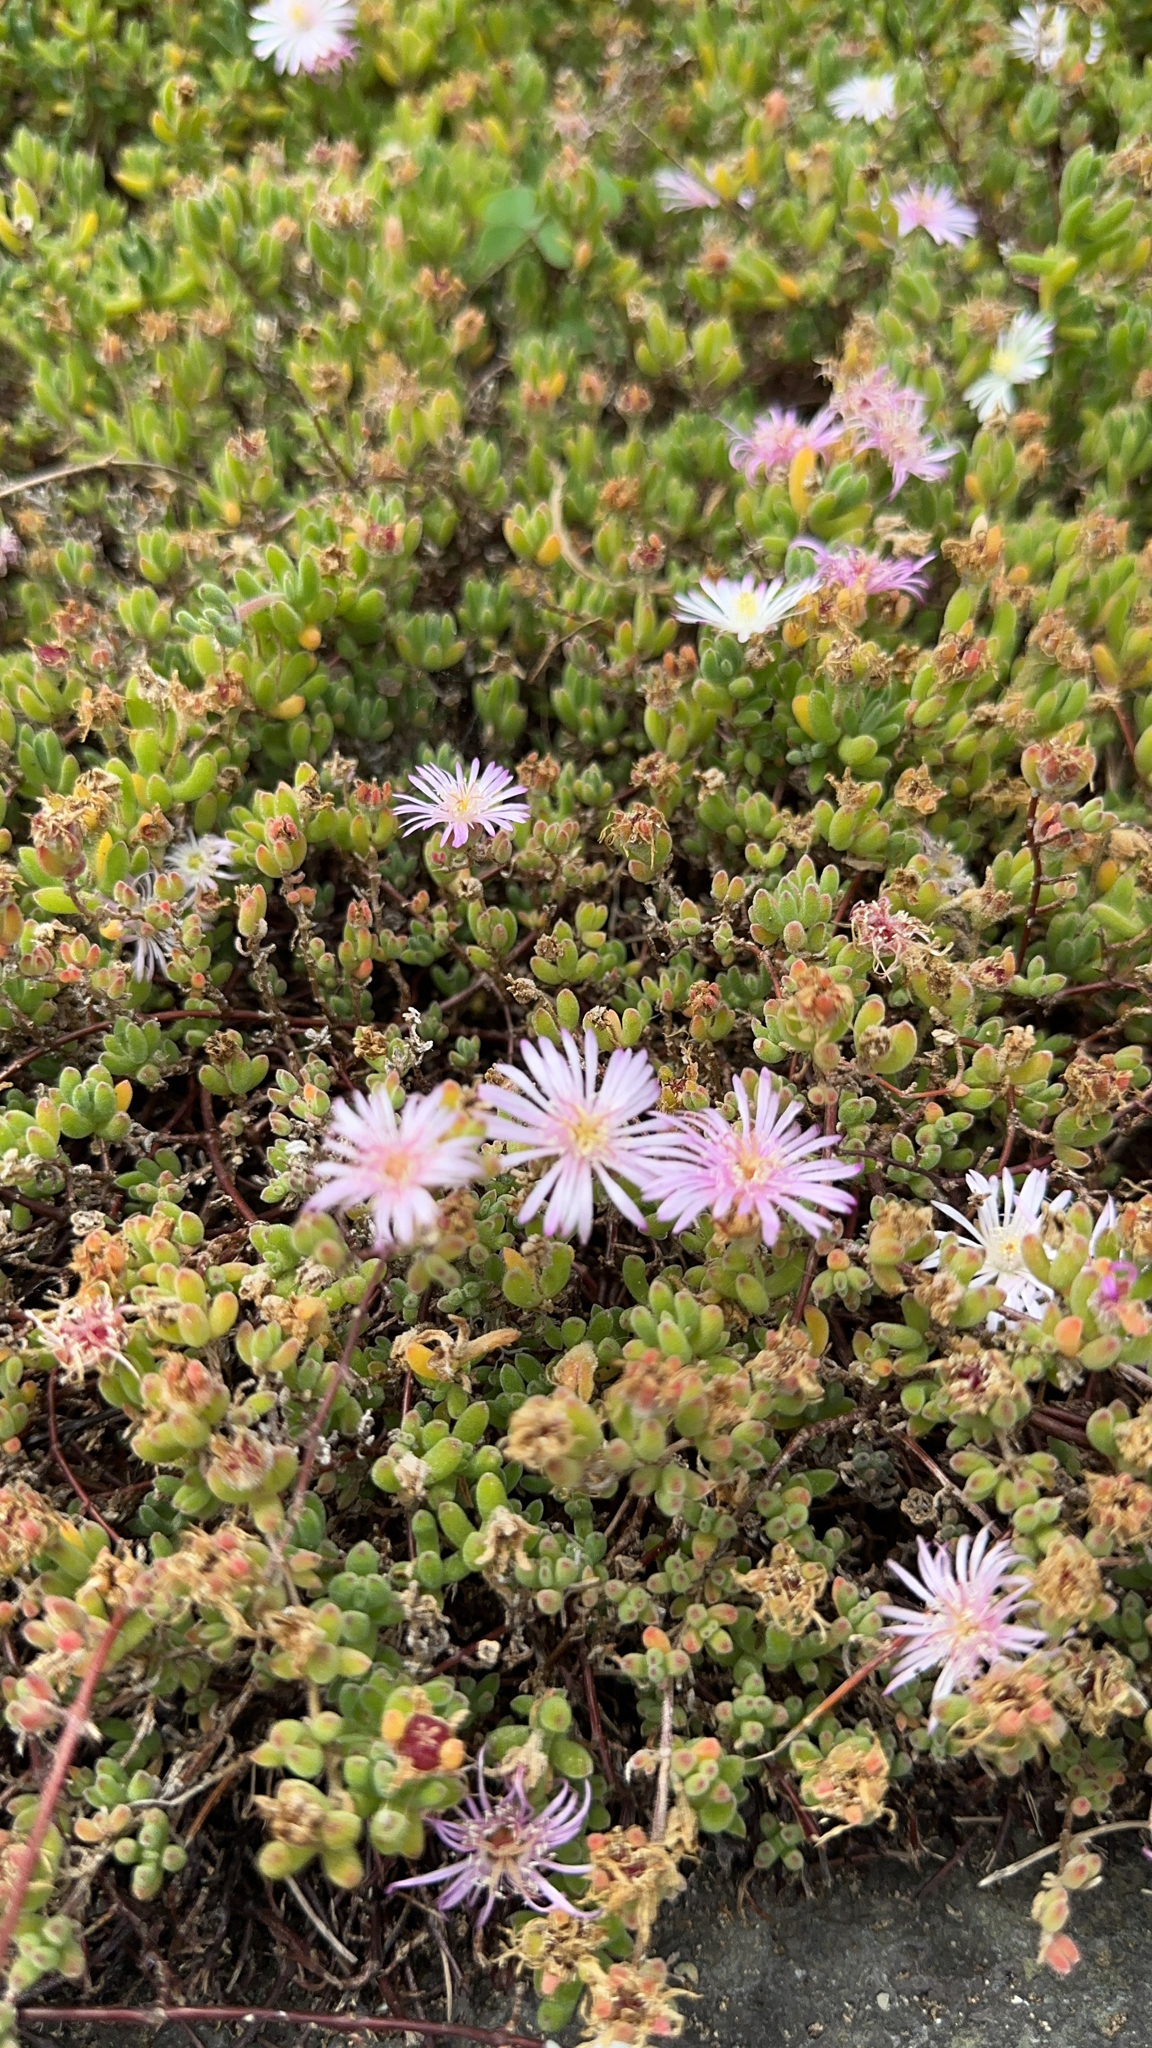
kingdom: Plantae
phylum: Tracheophyta
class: Magnoliopsida
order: Caryophyllales
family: Aizoaceae
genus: Drosanthemum
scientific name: Drosanthemum floribundum
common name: Pale dewplant
